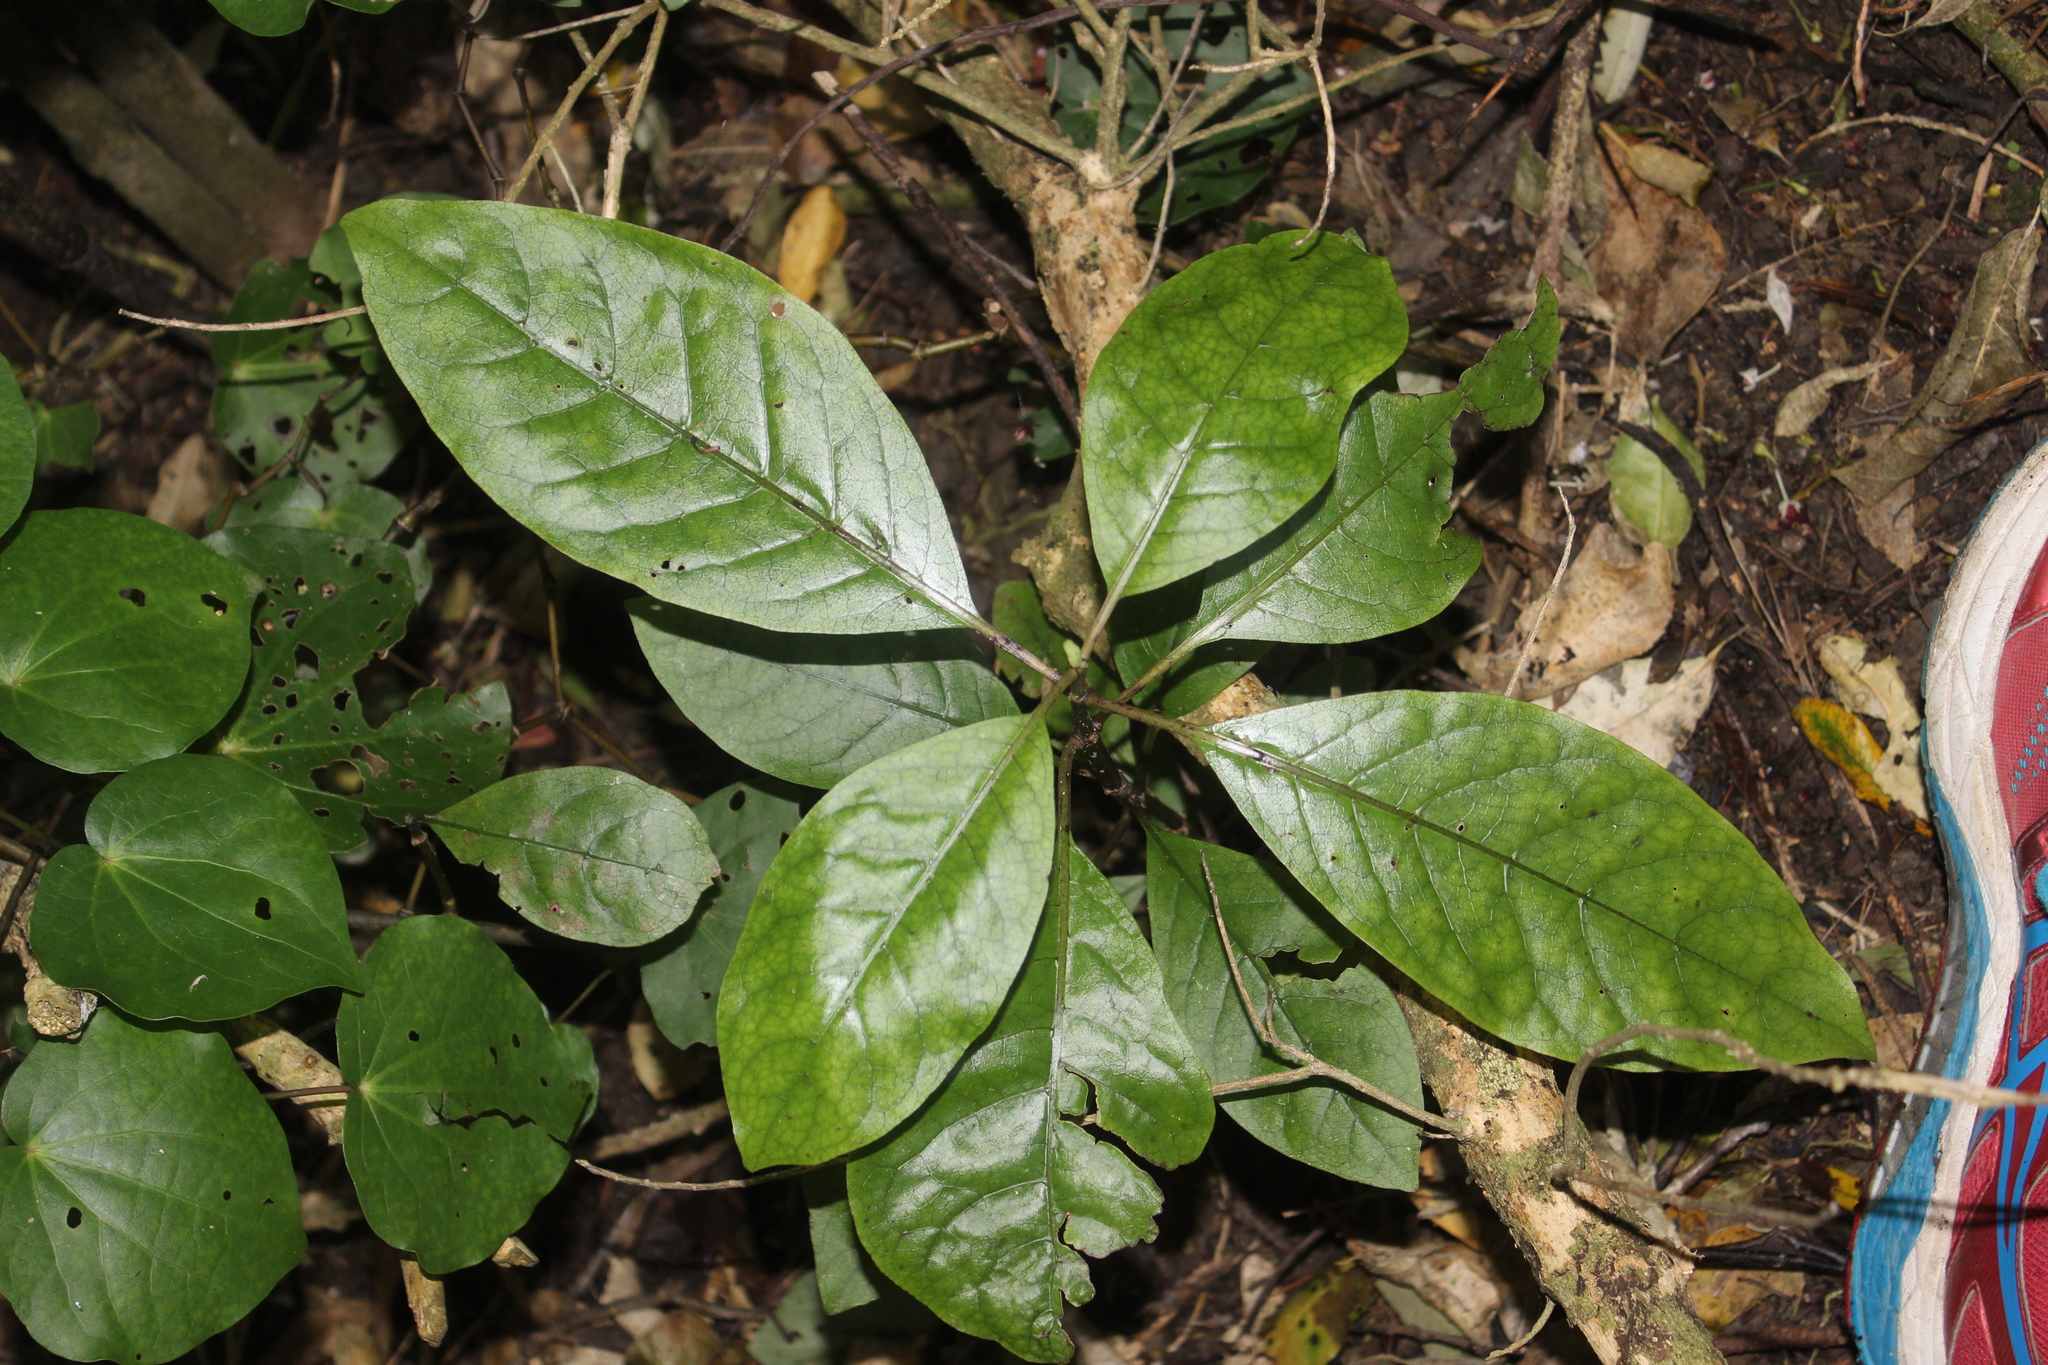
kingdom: Plantae
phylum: Tracheophyta
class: Magnoliopsida
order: Gentianales
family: Rubiaceae
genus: Coprosma
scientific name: Coprosma autumnalis
